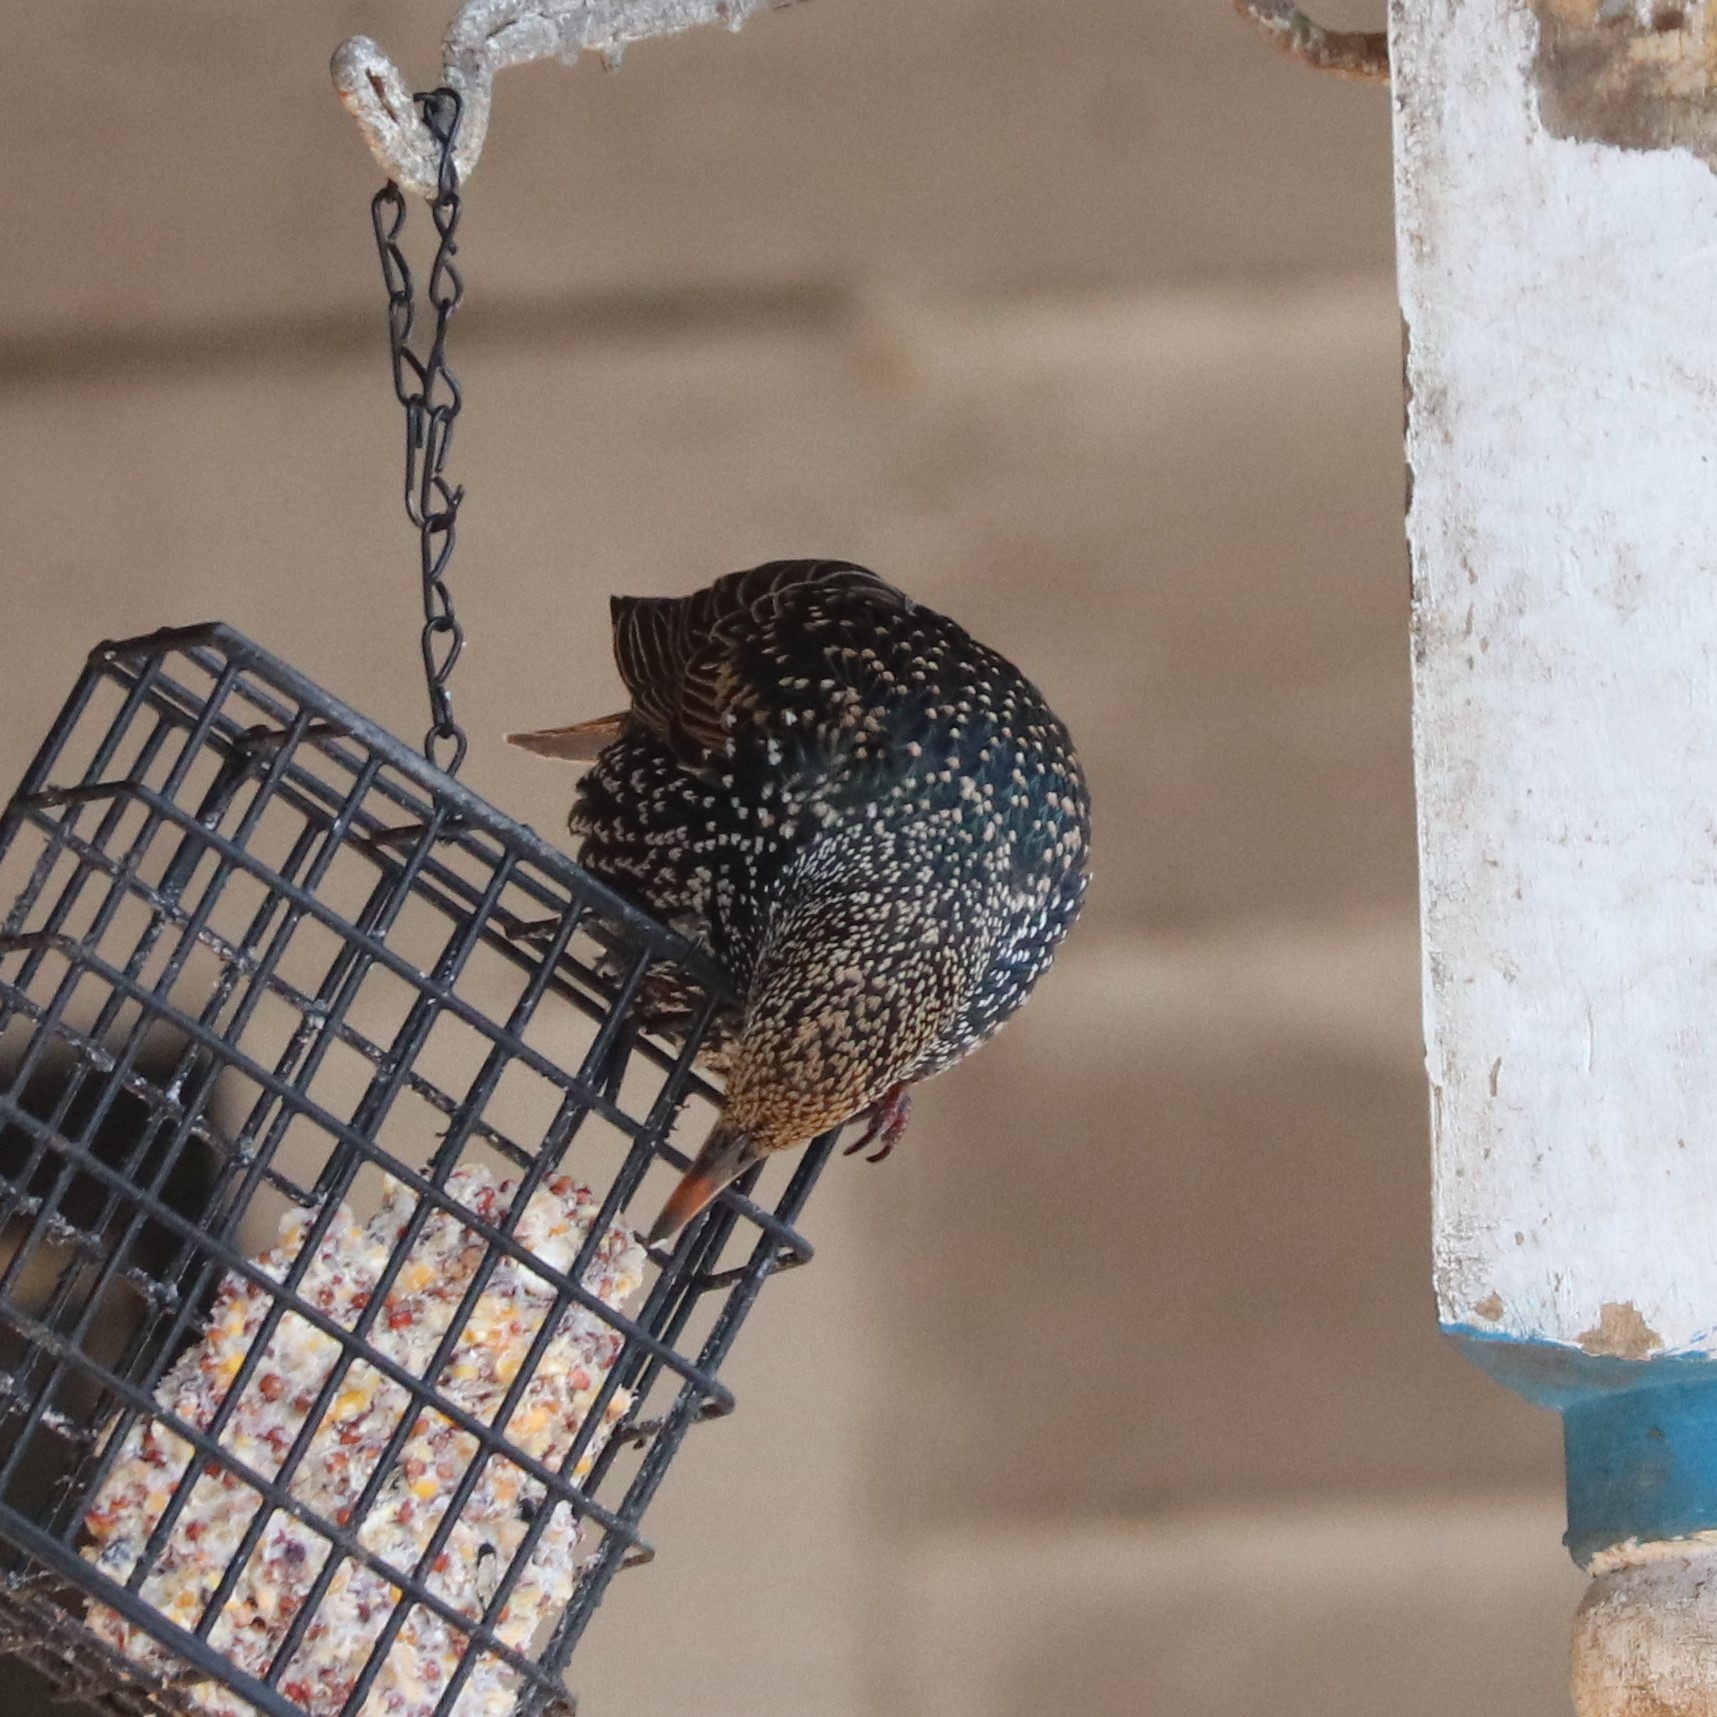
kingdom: Animalia
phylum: Chordata
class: Aves
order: Passeriformes
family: Sturnidae
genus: Sturnus
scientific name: Sturnus vulgaris
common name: Common starling
